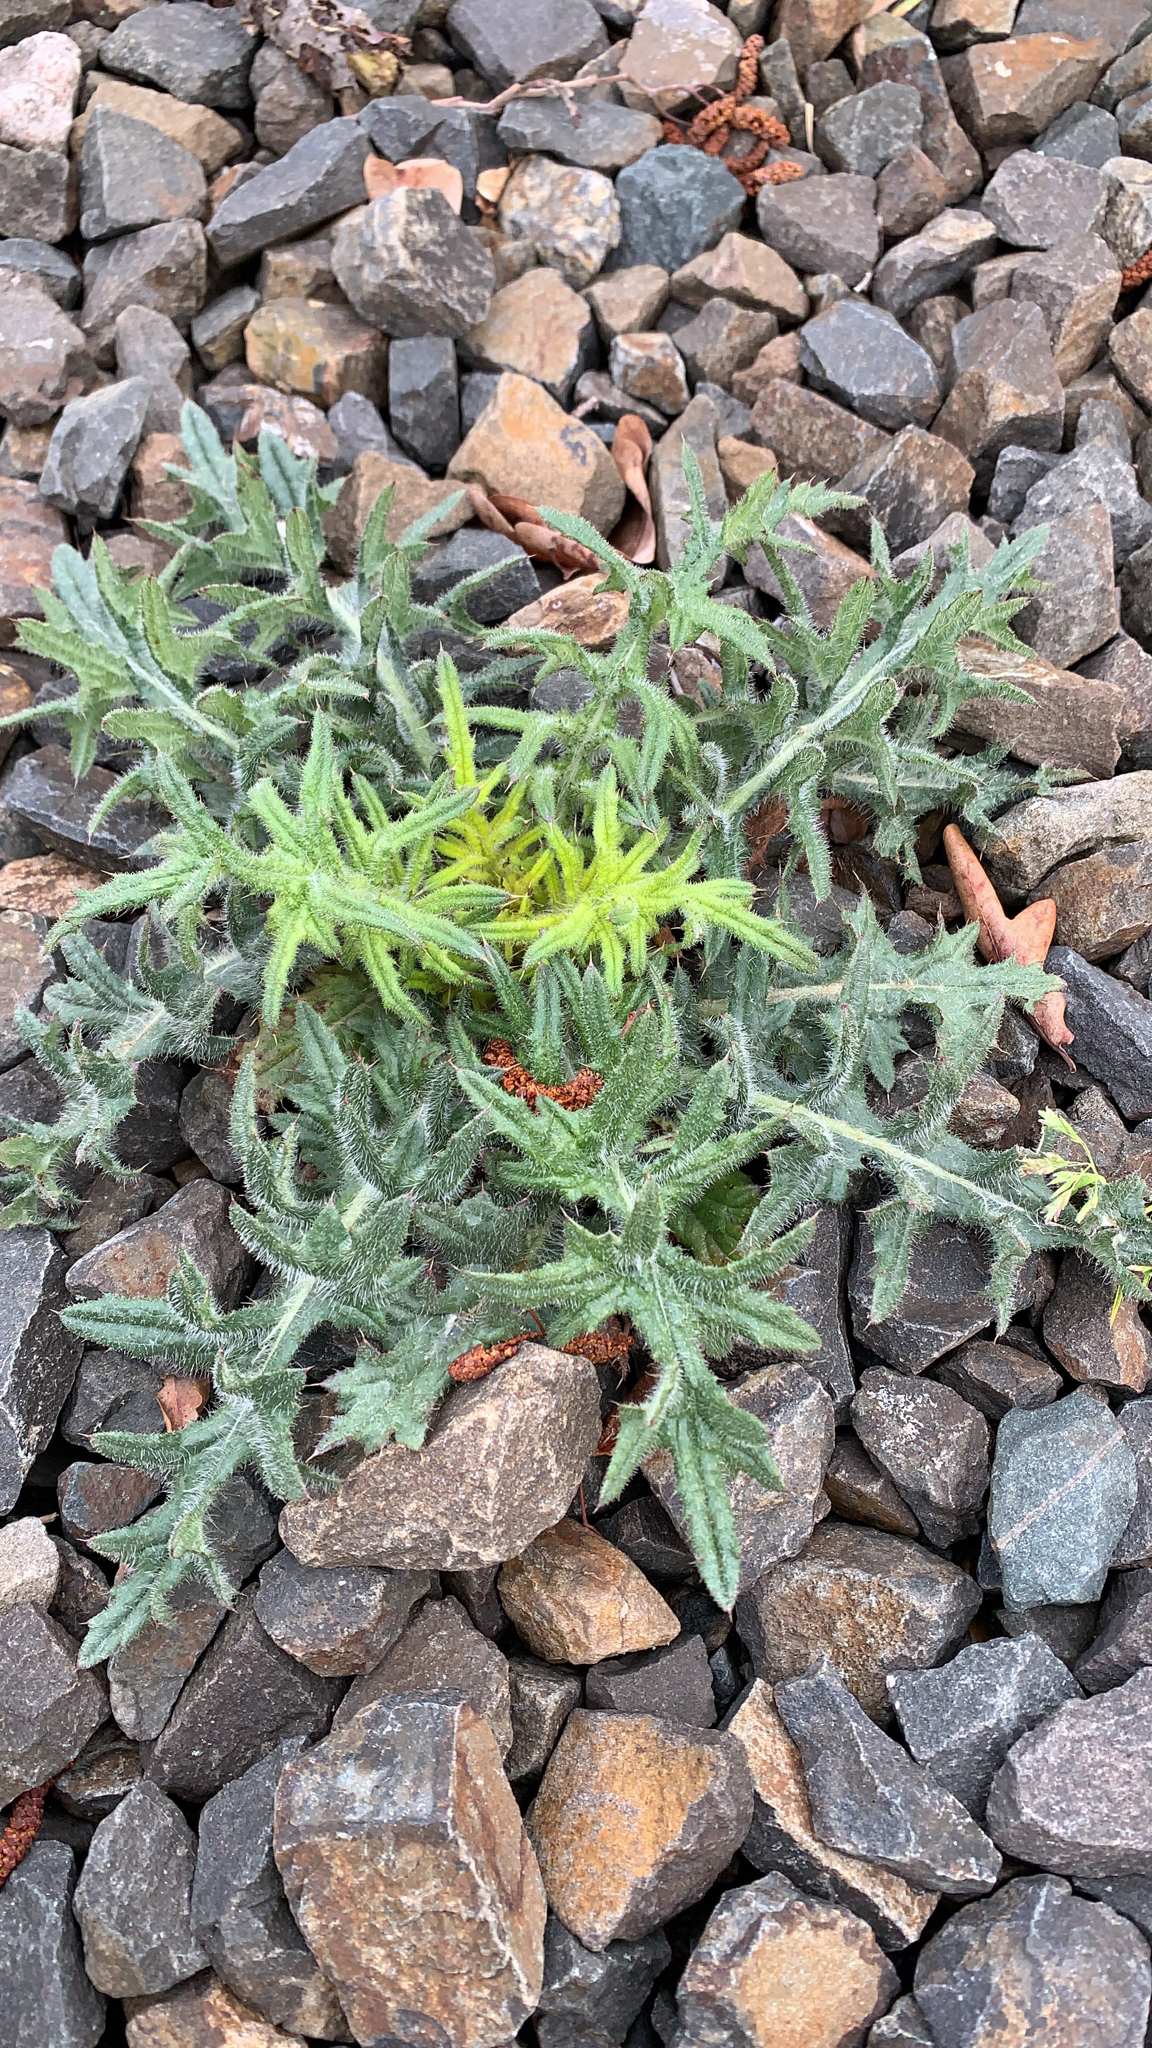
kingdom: Plantae
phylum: Tracheophyta
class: Magnoliopsida
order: Asterales
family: Asteraceae
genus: Cirsium
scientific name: Cirsium vulgare
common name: Bull thistle
